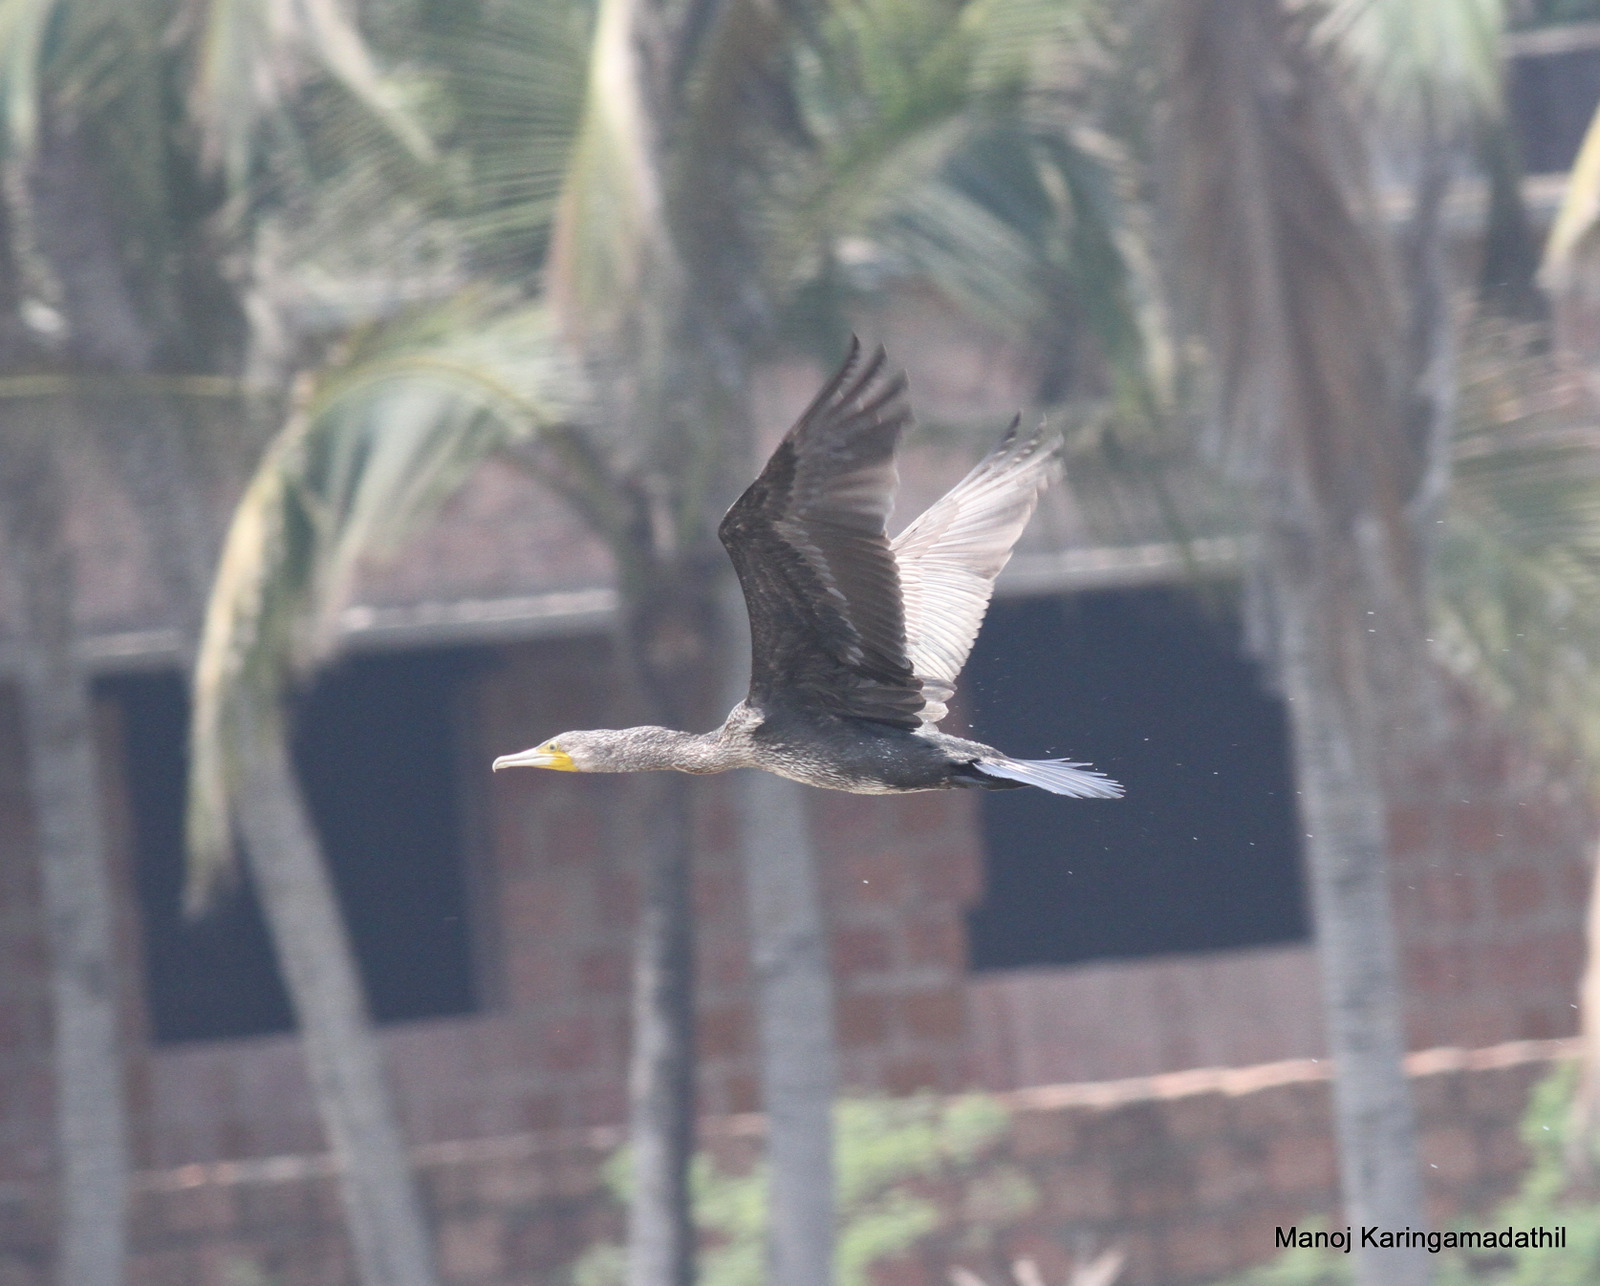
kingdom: Animalia
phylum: Chordata
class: Aves
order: Suliformes
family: Phalacrocoracidae
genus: Phalacrocorax
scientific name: Phalacrocorax carbo
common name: Great cormorant
